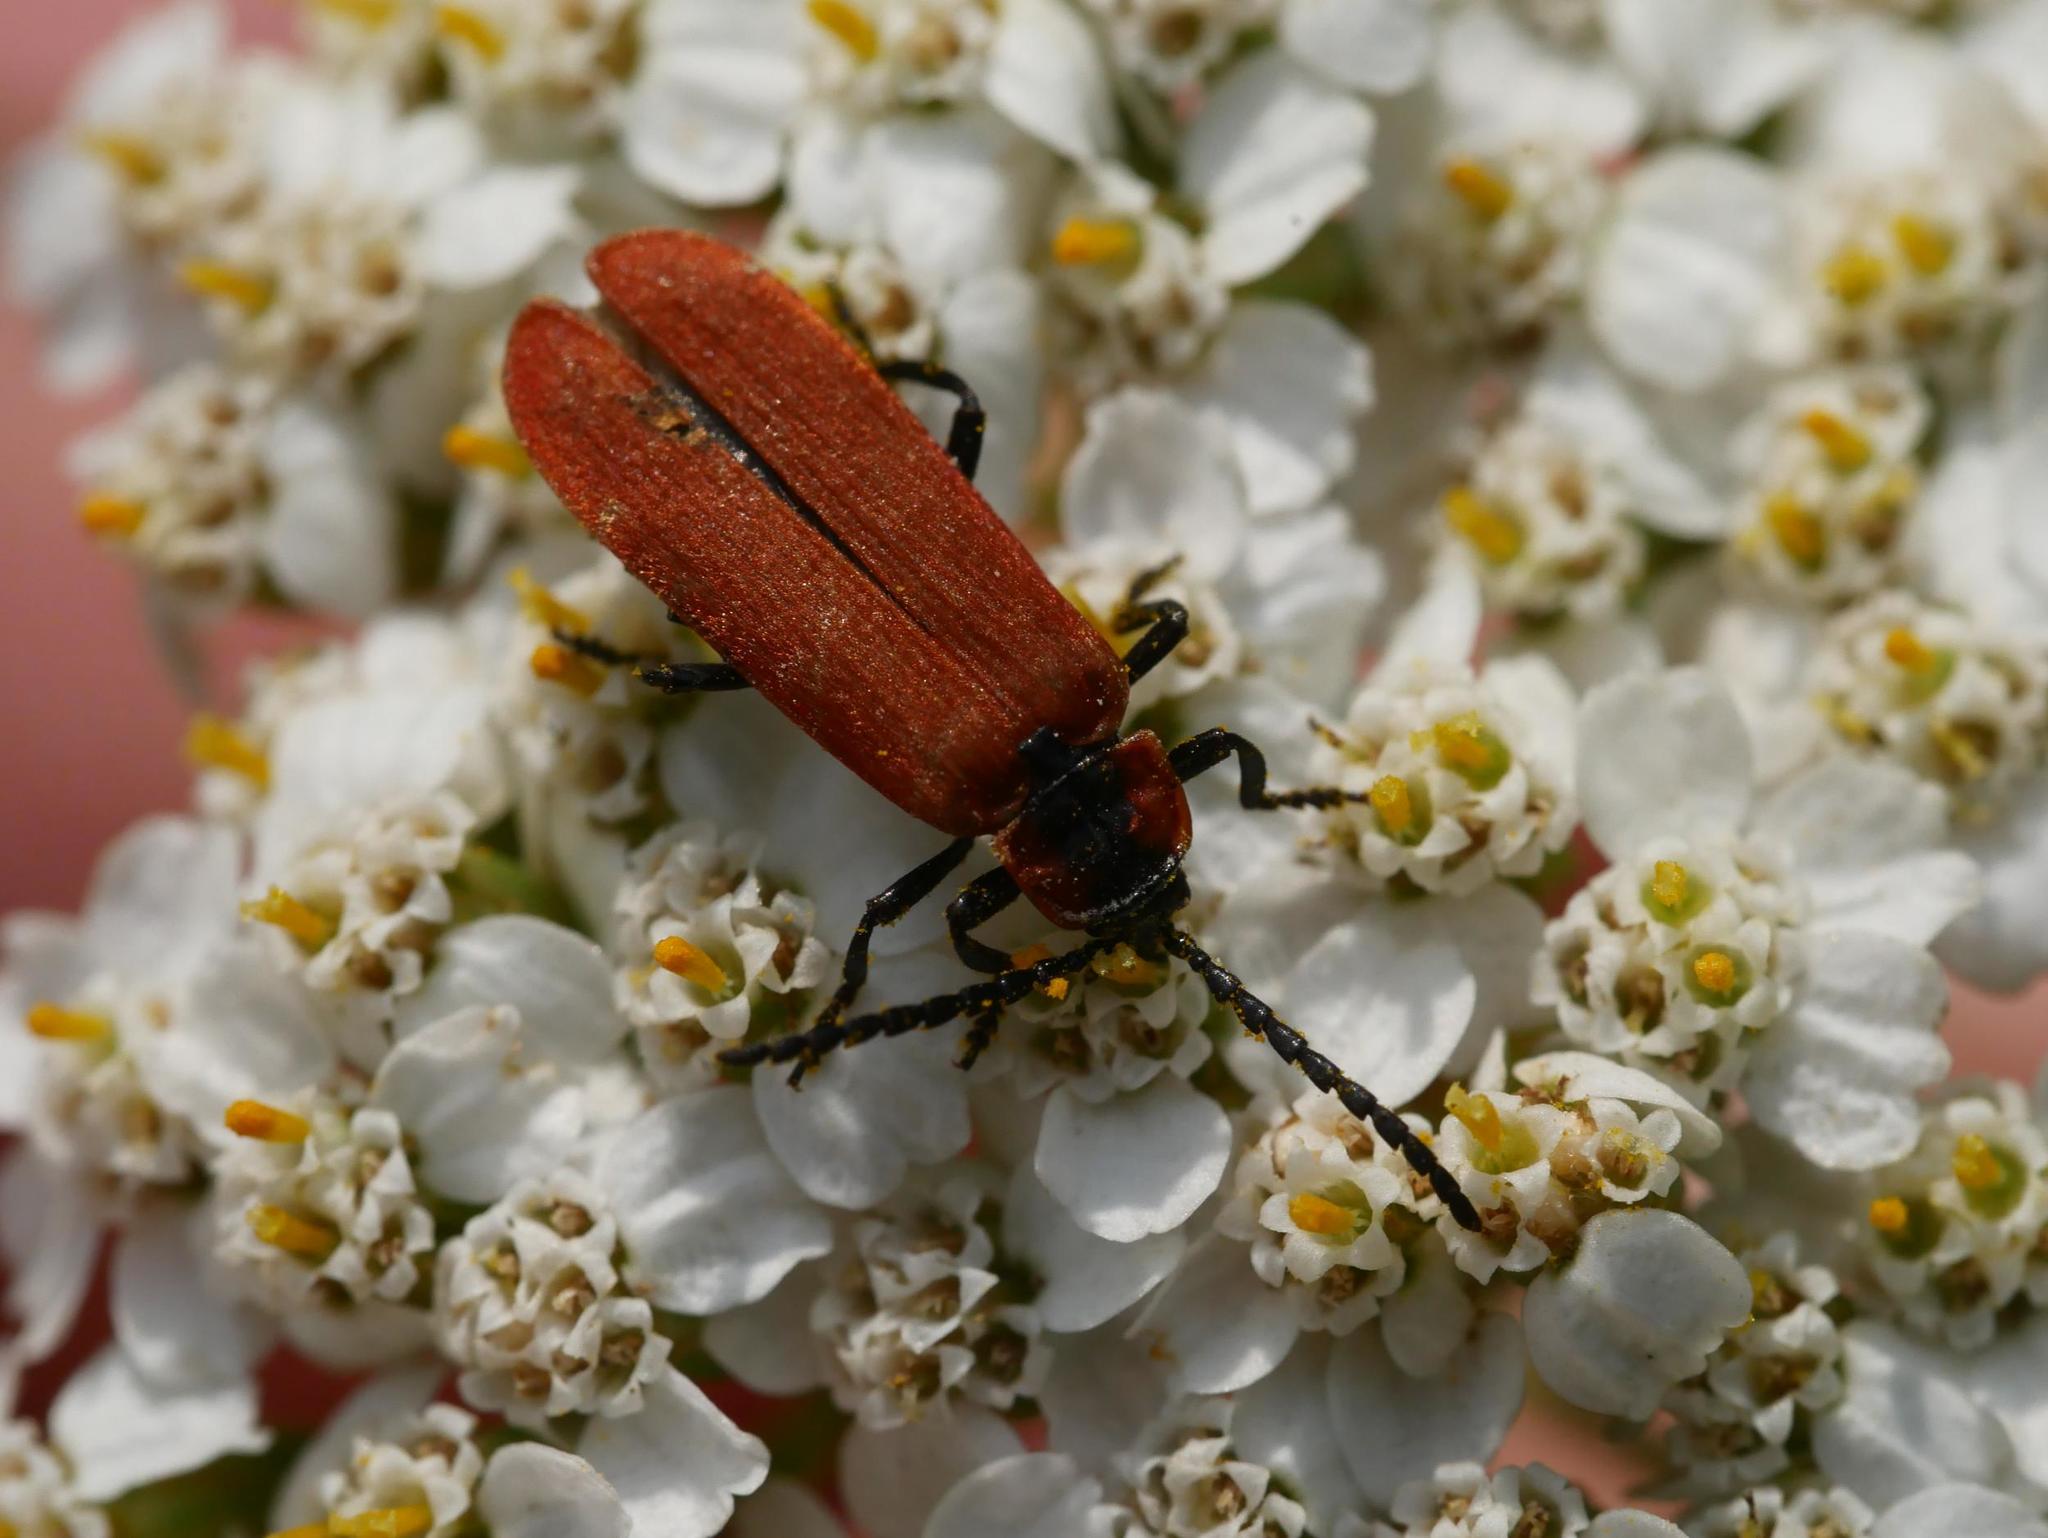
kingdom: Animalia
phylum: Arthropoda
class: Insecta
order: Coleoptera
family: Lycidae
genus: Lygistopterus
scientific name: Lygistopterus sanguineus
